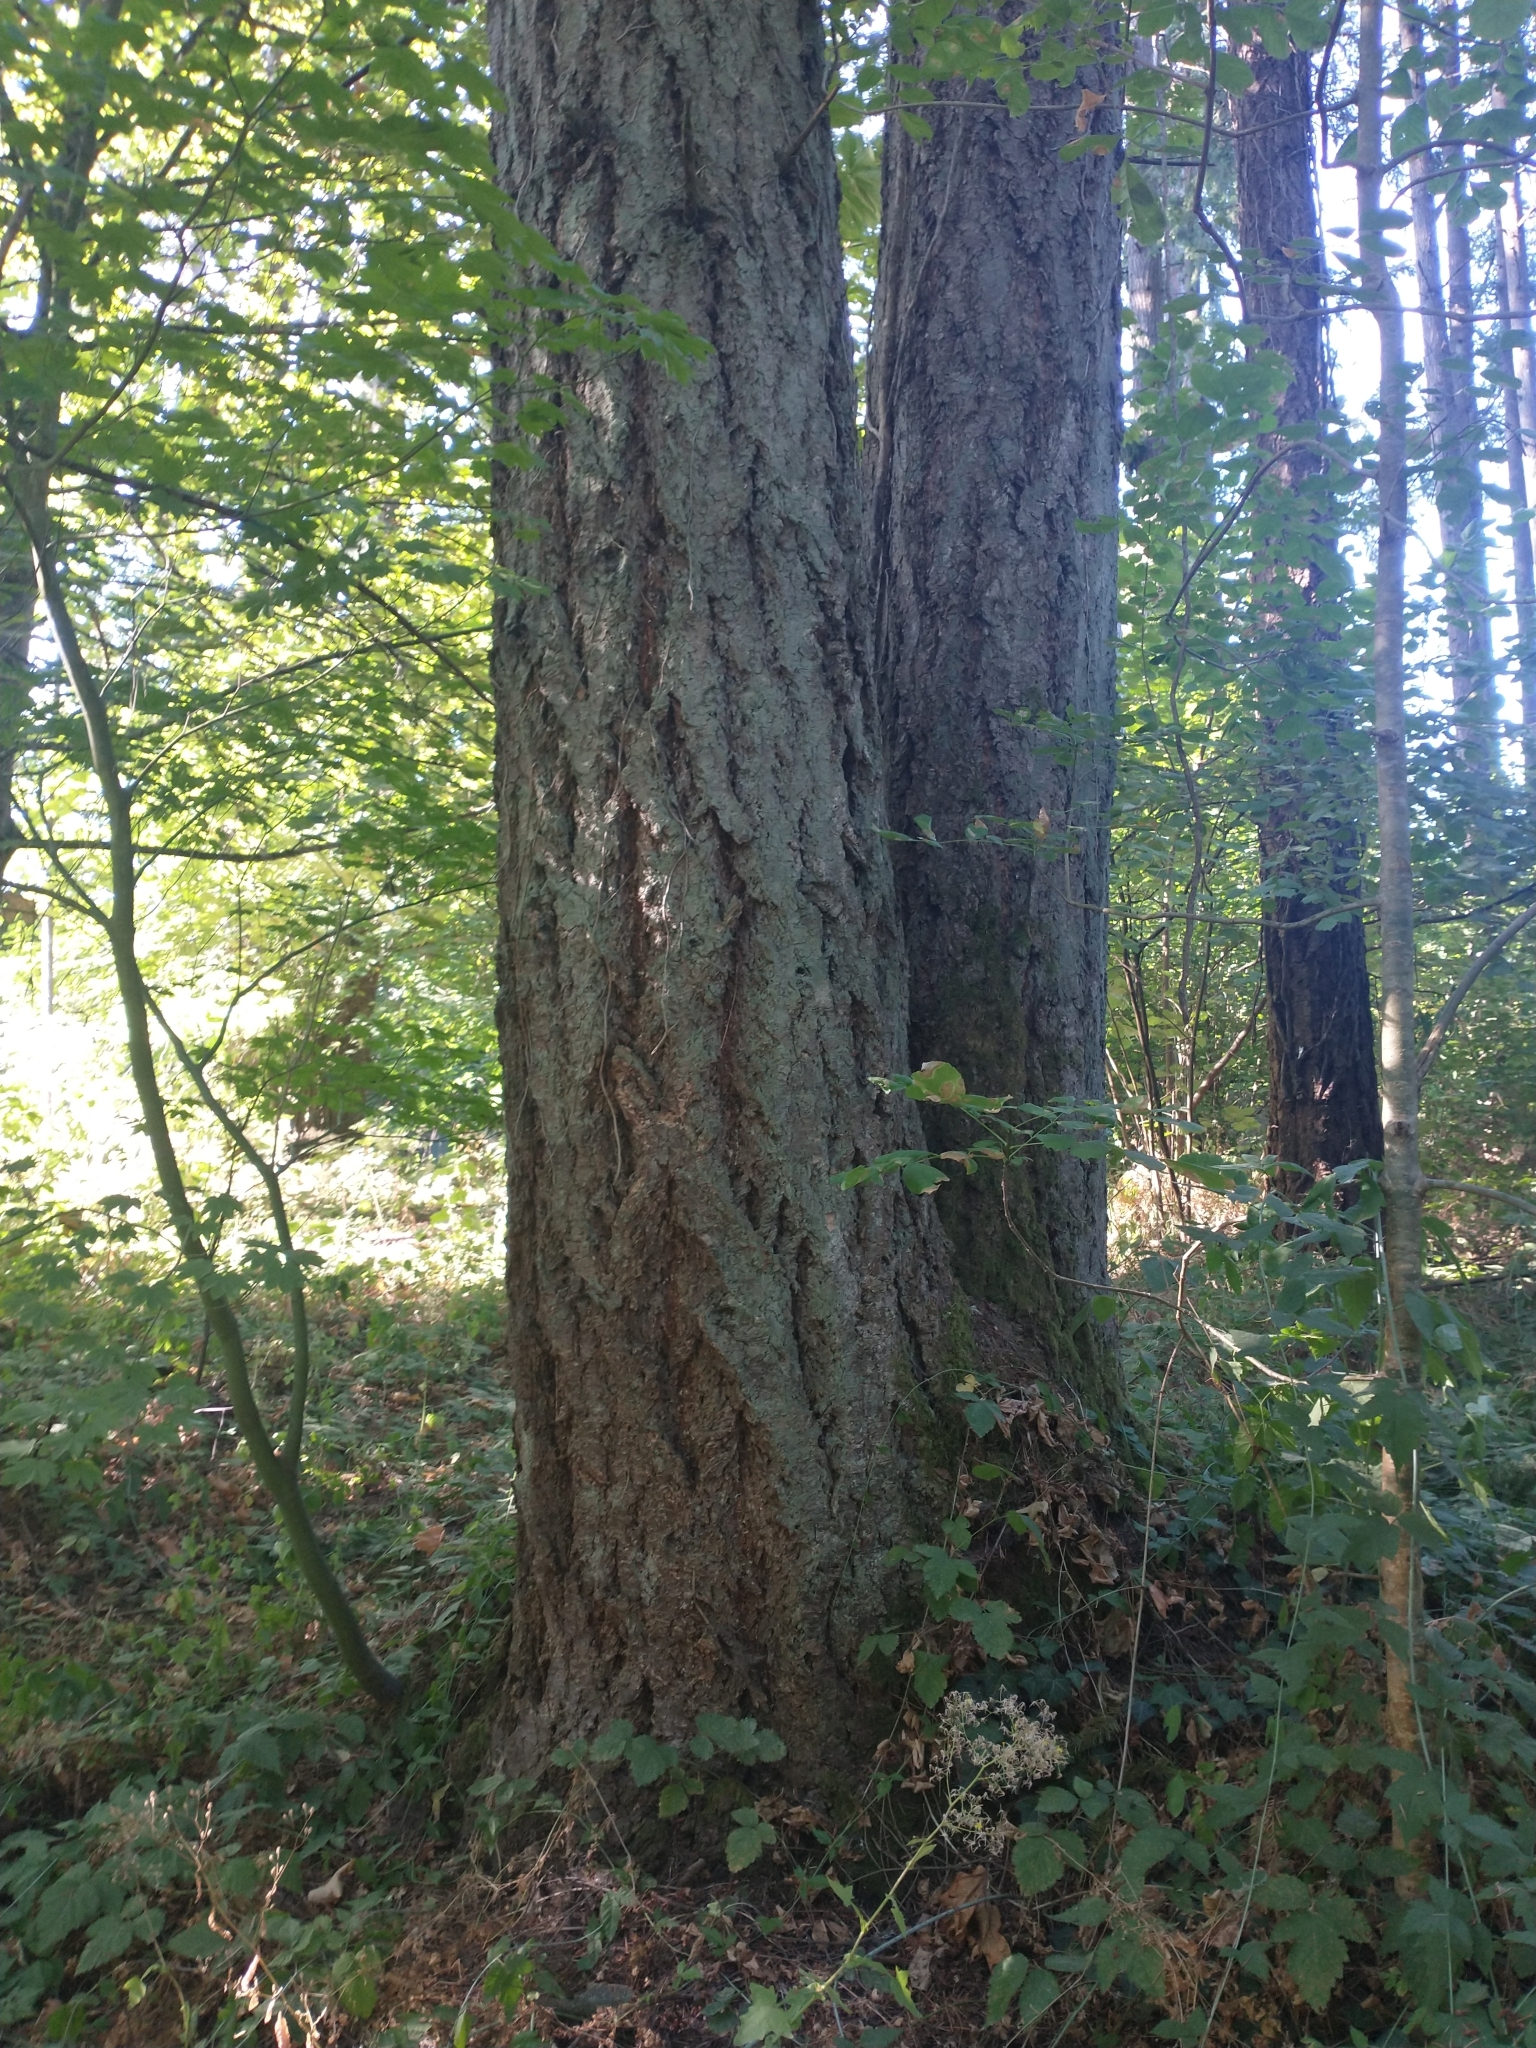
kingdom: Plantae
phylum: Tracheophyta
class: Pinopsida
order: Pinales
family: Pinaceae
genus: Pseudotsuga
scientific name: Pseudotsuga menziesii
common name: Douglas fir
